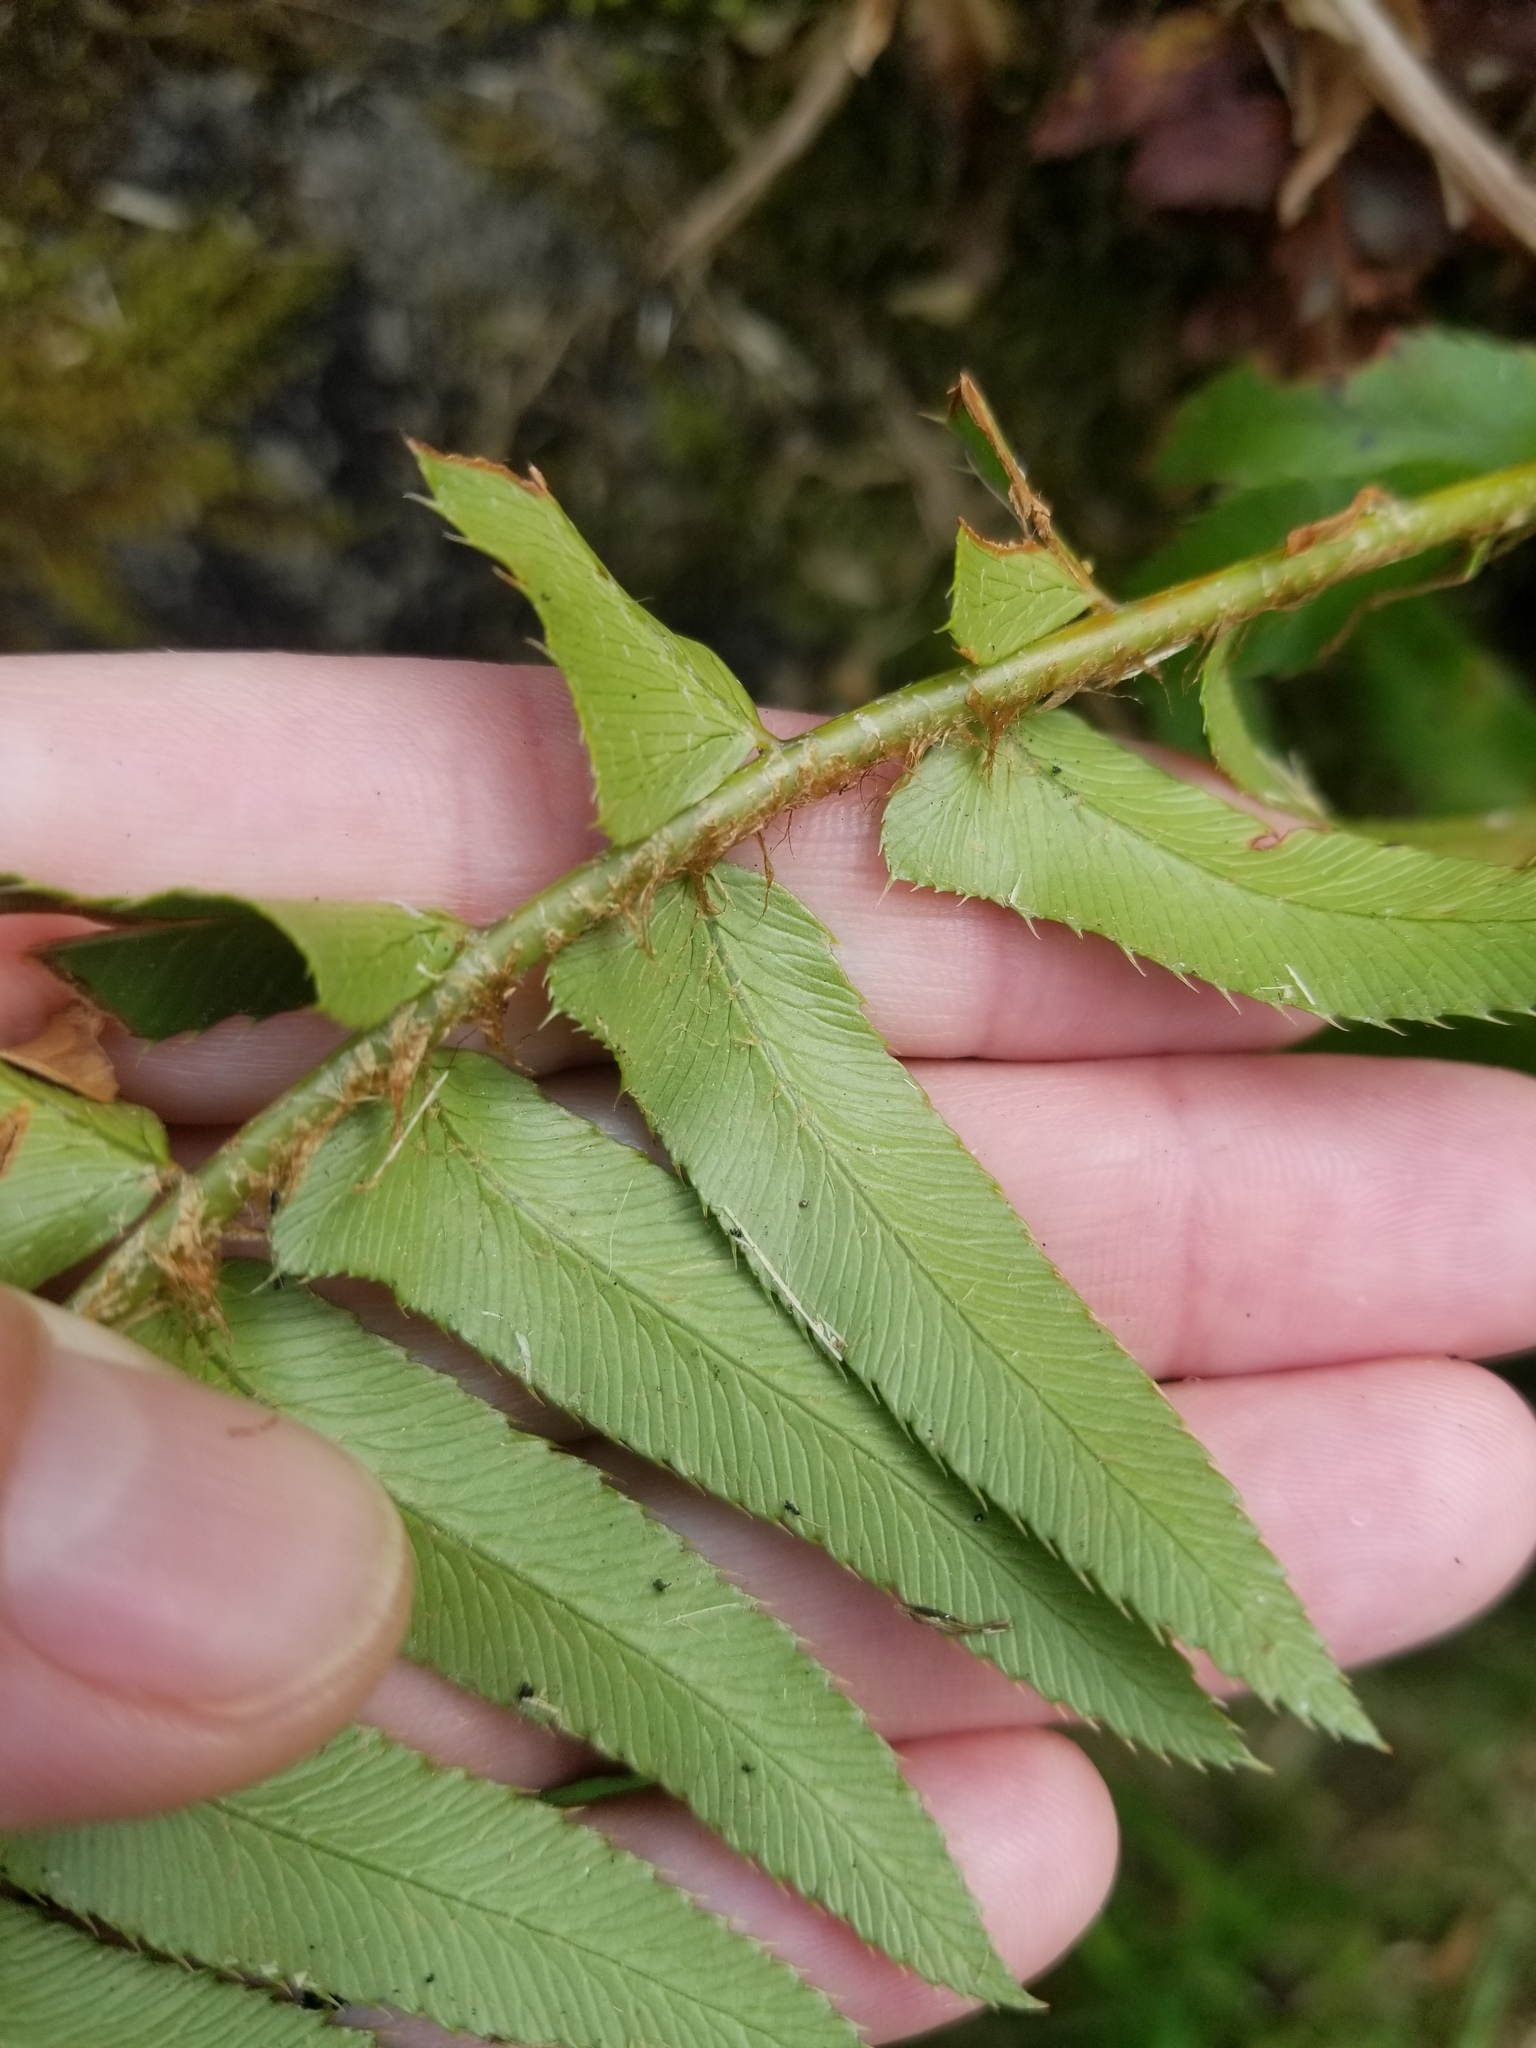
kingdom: Plantae
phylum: Tracheophyta
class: Polypodiopsida
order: Polypodiales
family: Dryopteridaceae
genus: Polystichum
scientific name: Polystichum munitum
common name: Western sword-fern
